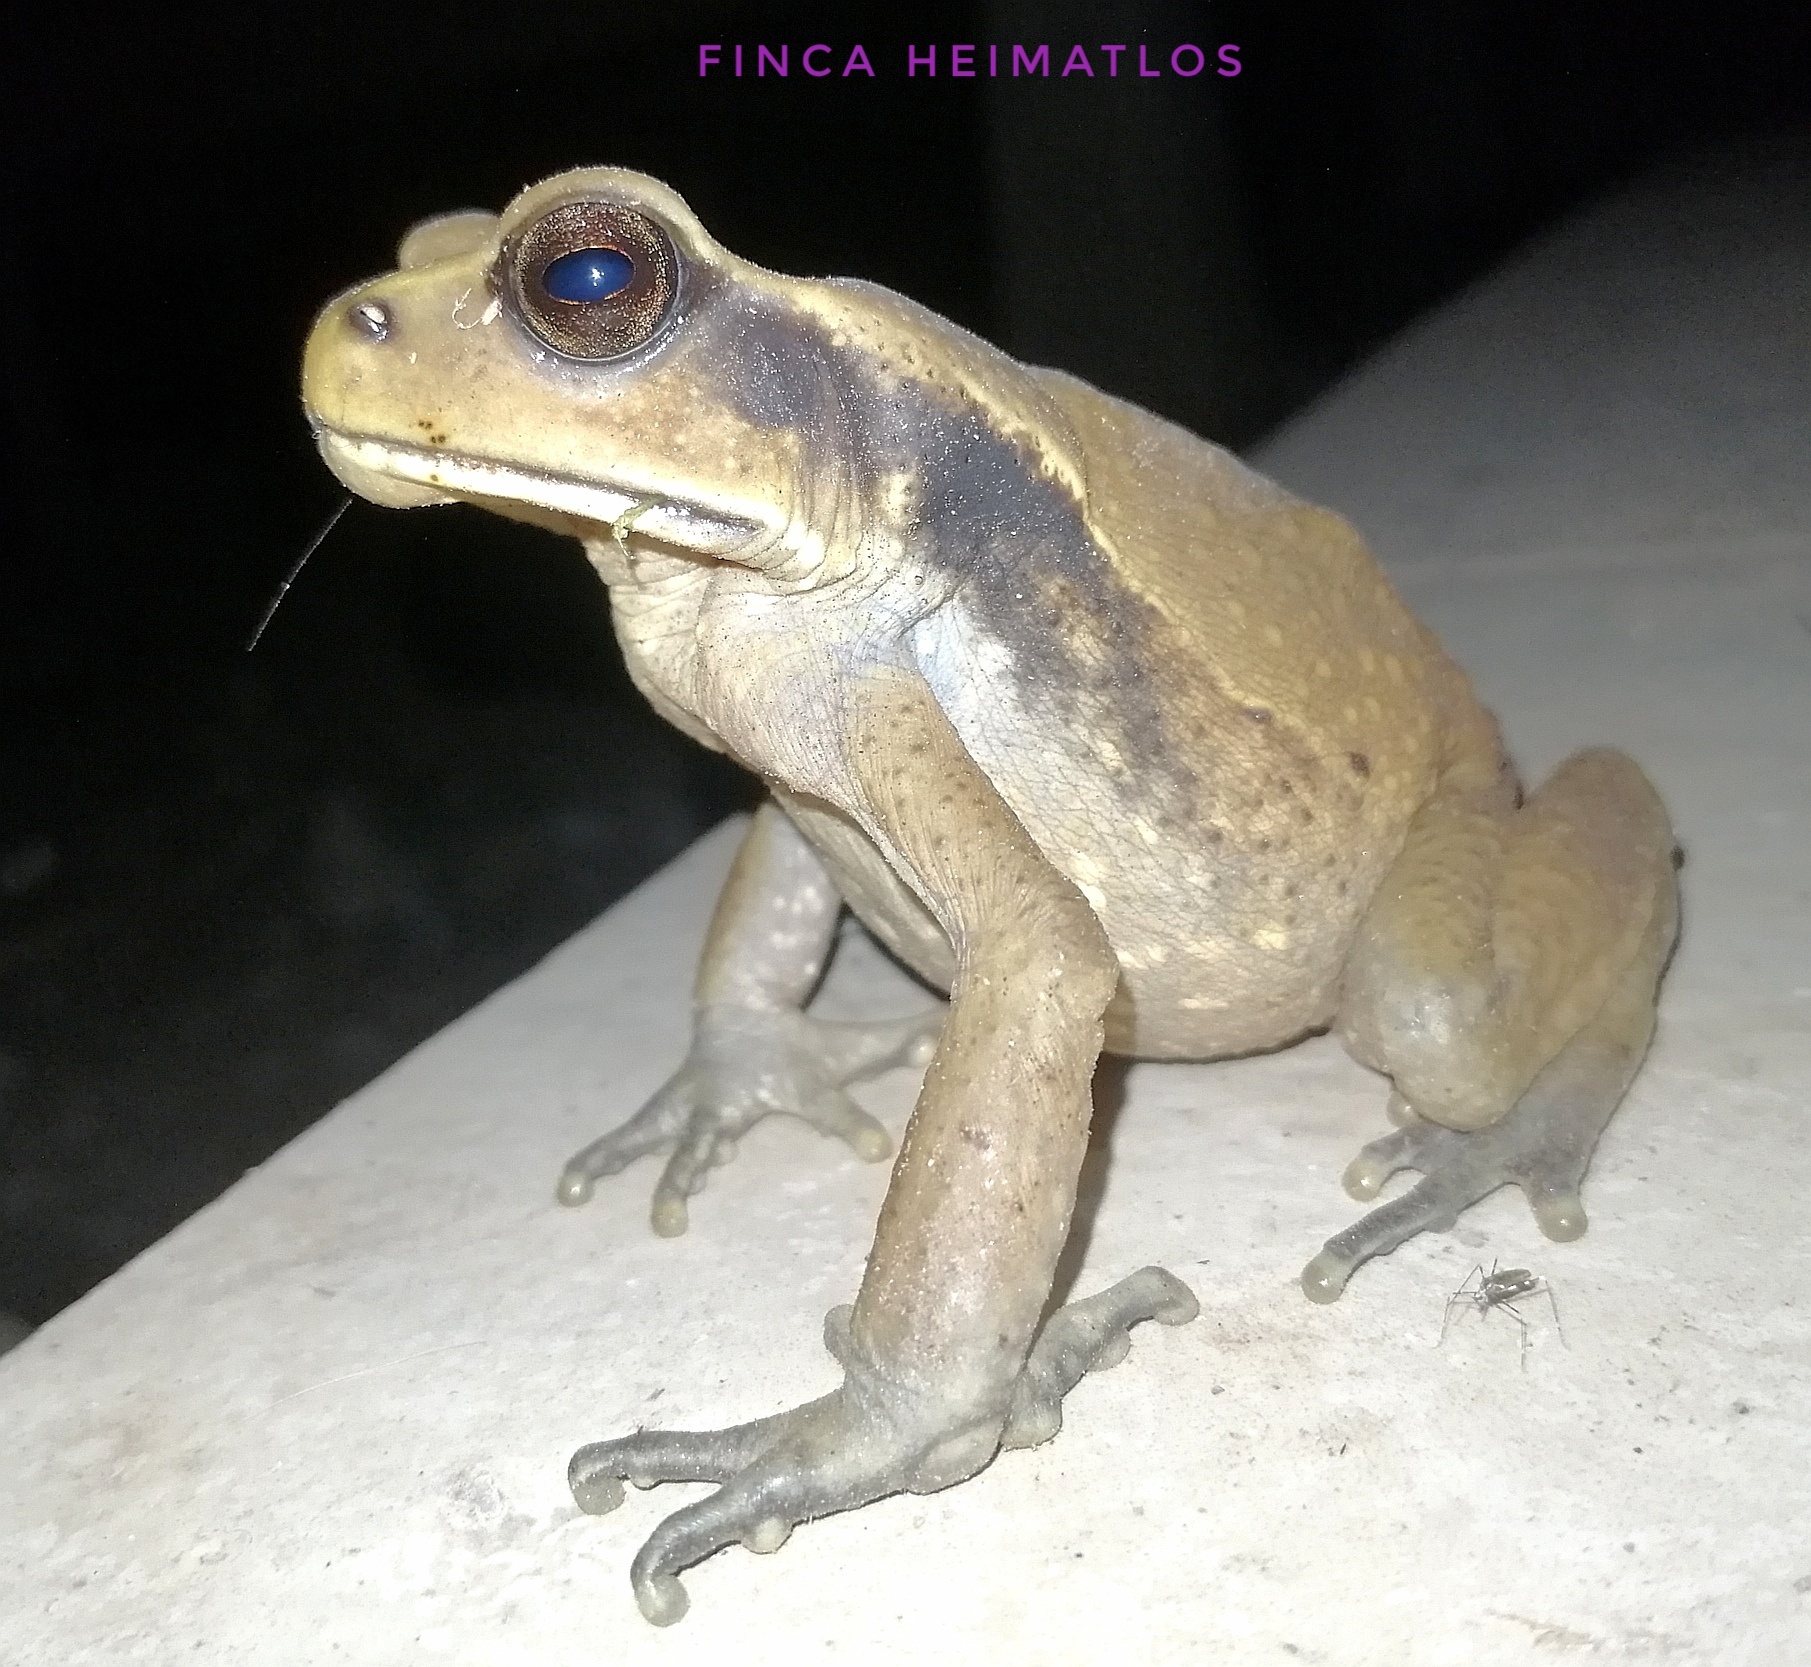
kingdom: Animalia
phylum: Chordata
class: Amphibia
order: Anura
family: Bufonidae
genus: Rhaebo
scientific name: Rhaebo ecuadorensis
